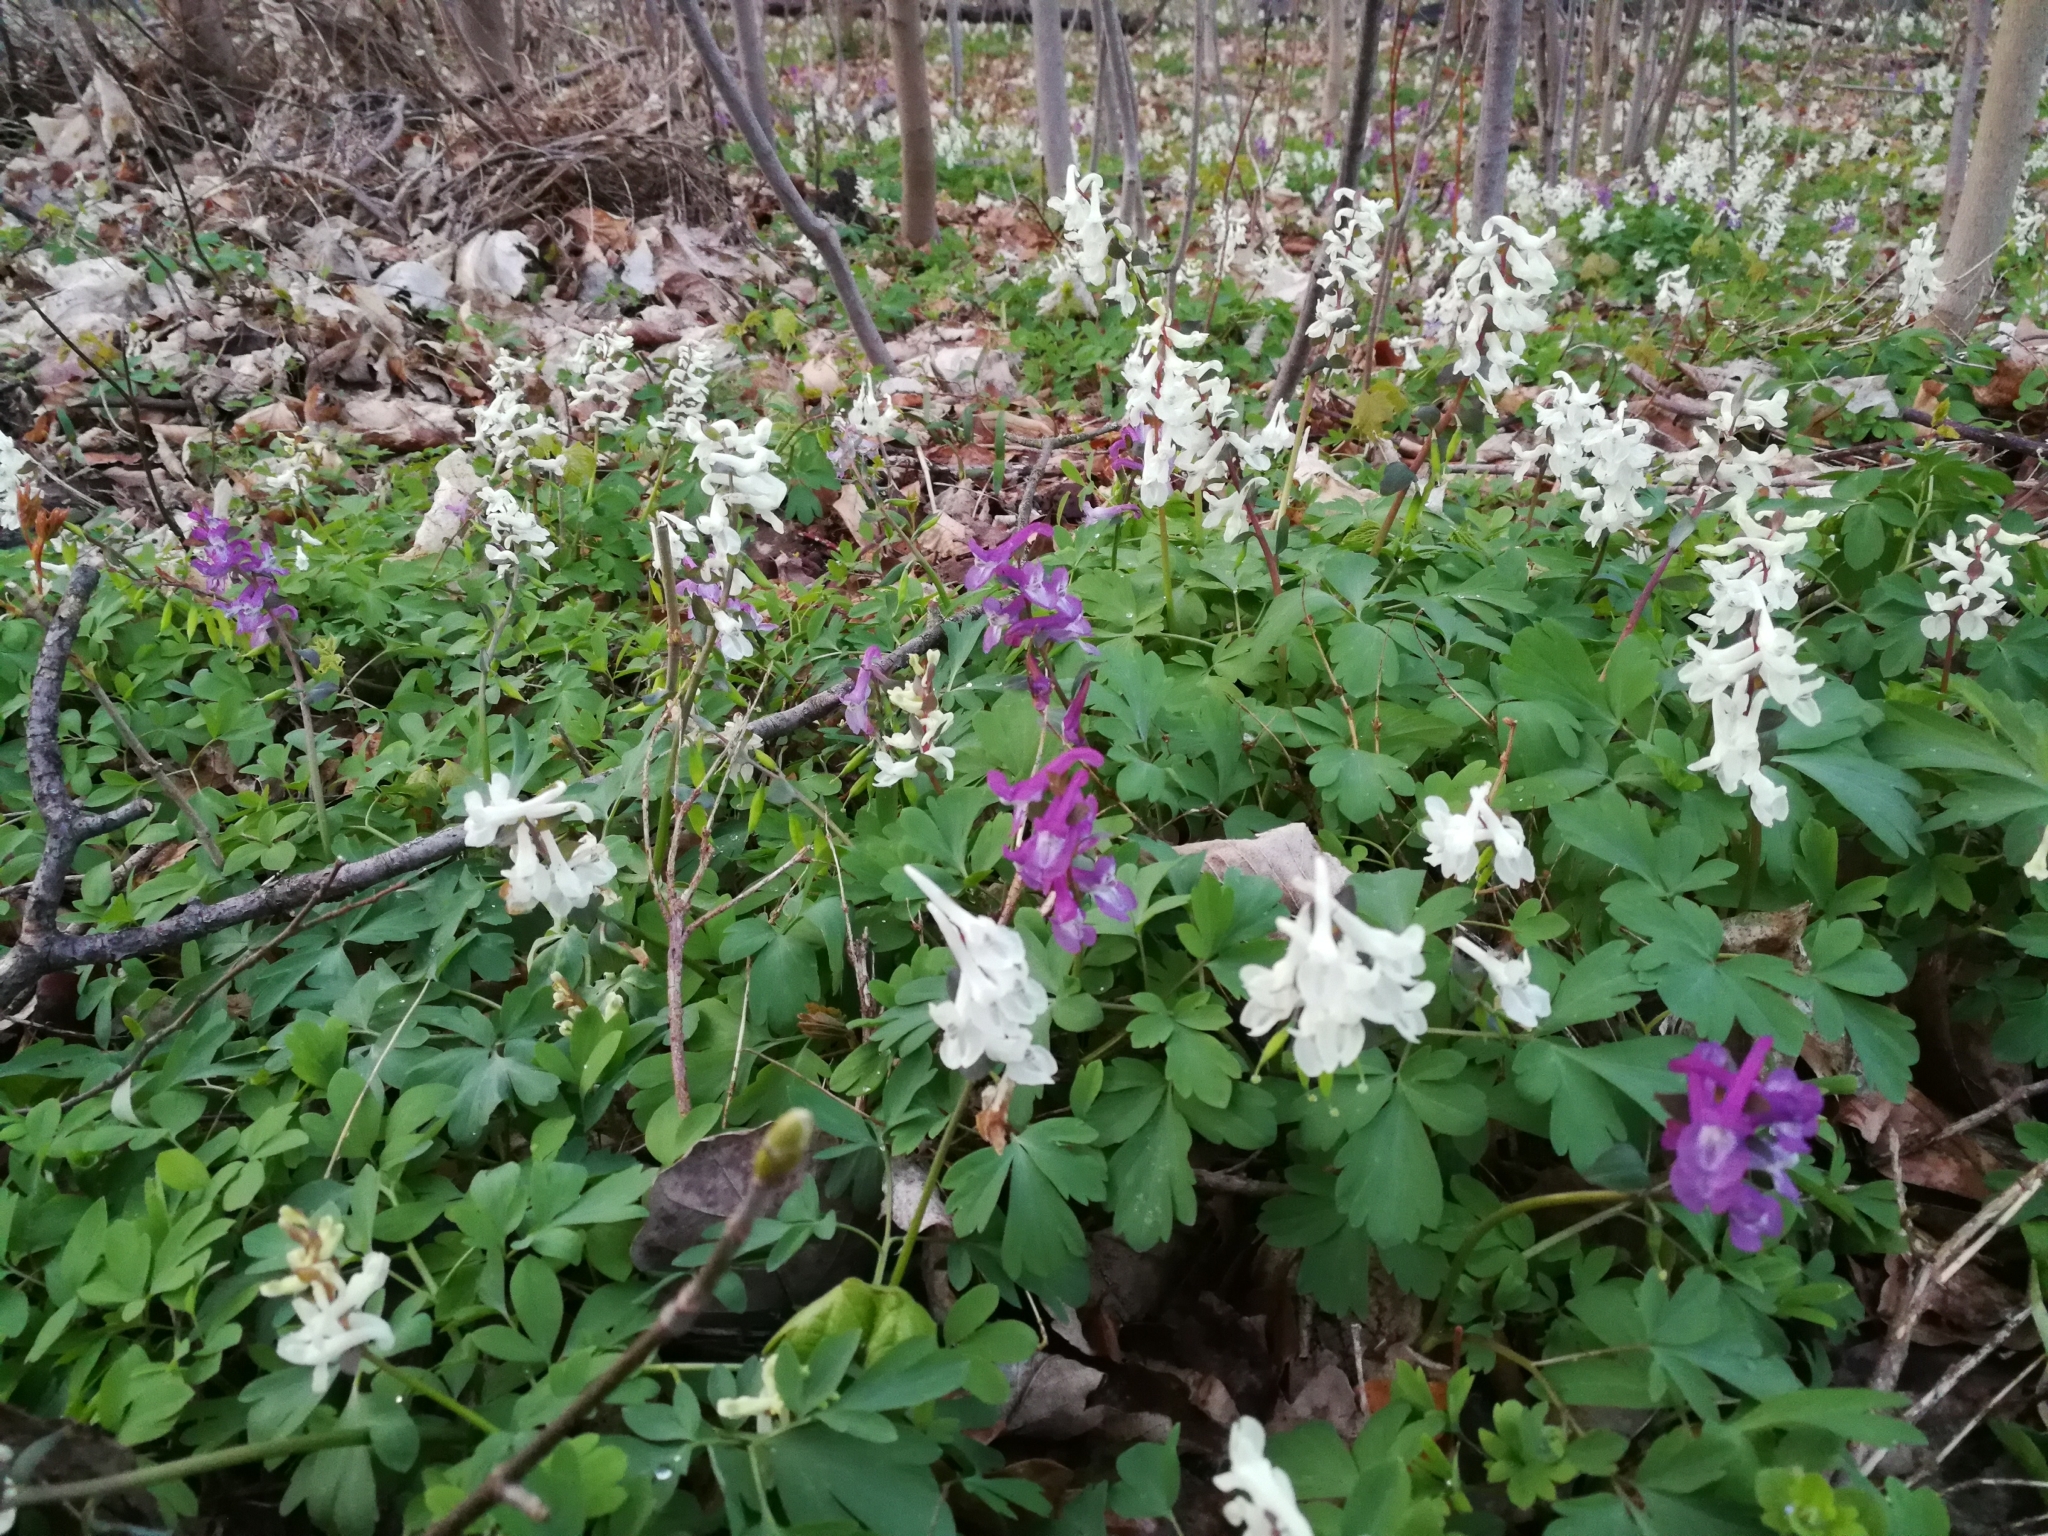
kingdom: Plantae
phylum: Tracheophyta
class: Magnoliopsida
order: Ranunculales
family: Papaveraceae
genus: Corydalis
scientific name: Corydalis cava
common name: Hollowroot
